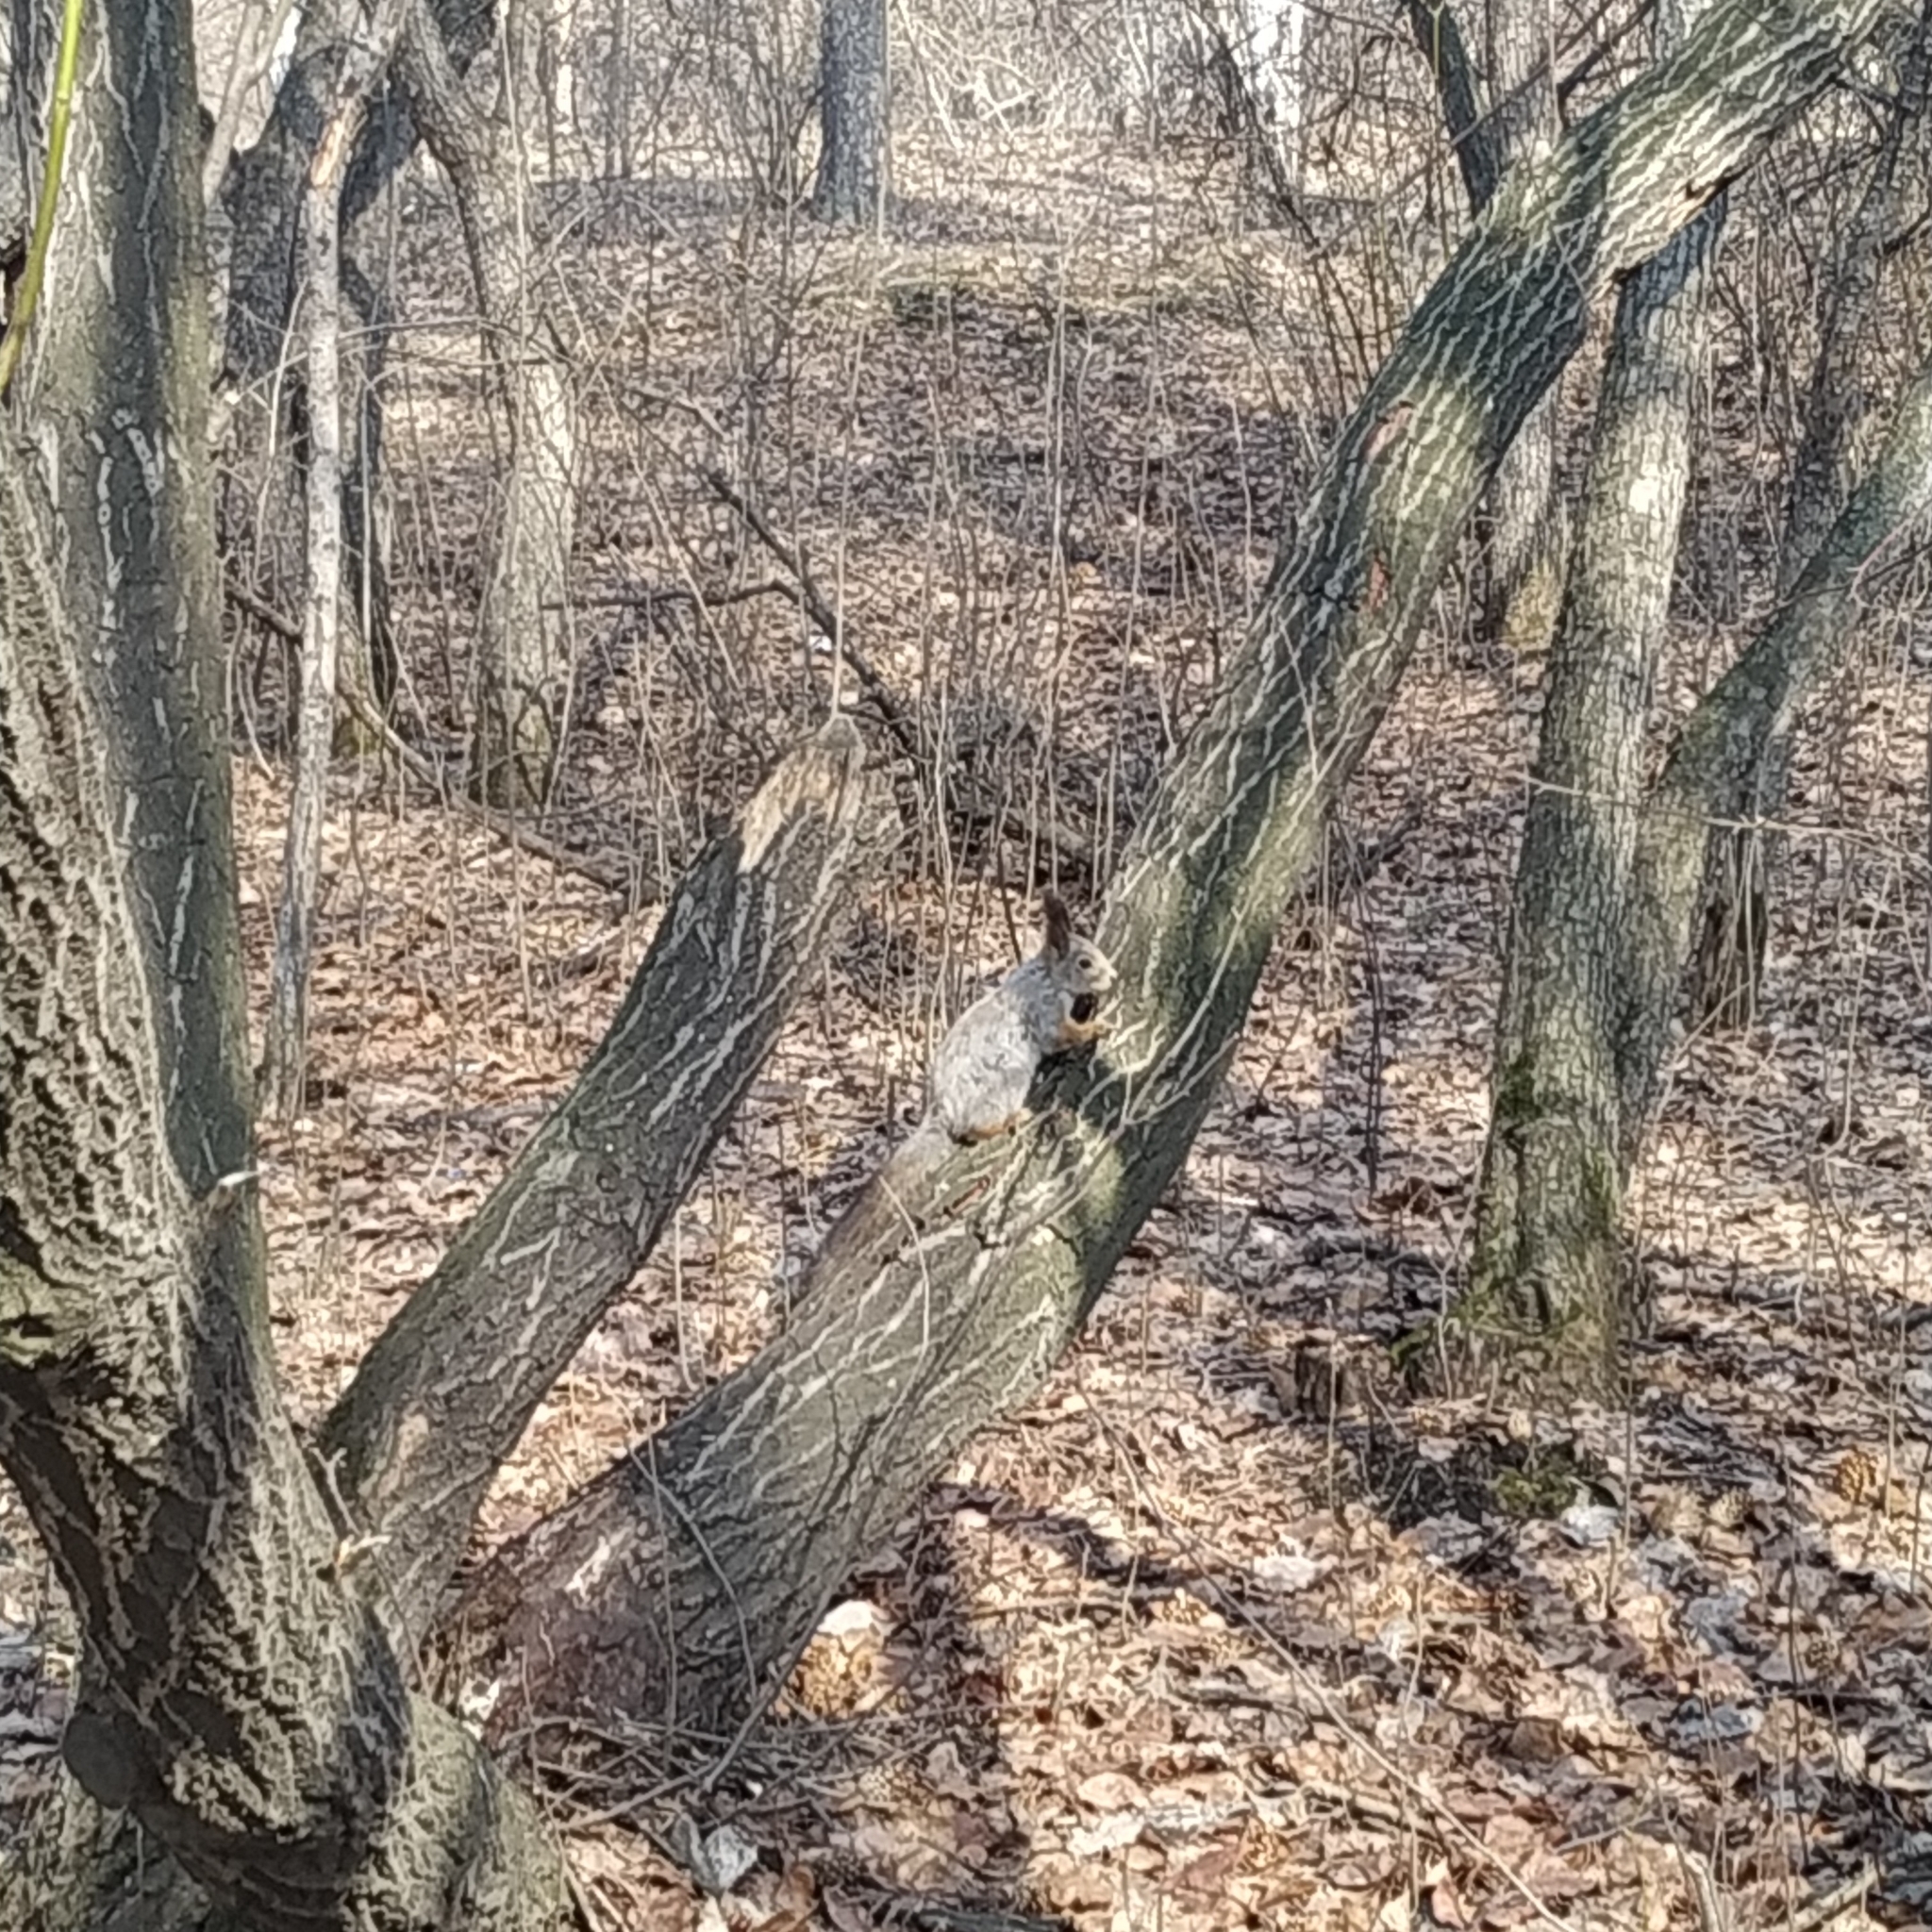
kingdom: Animalia
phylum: Chordata
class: Mammalia
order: Rodentia
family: Sciuridae
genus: Sciurus
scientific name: Sciurus vulgaris
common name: Eurasian red squirrel
